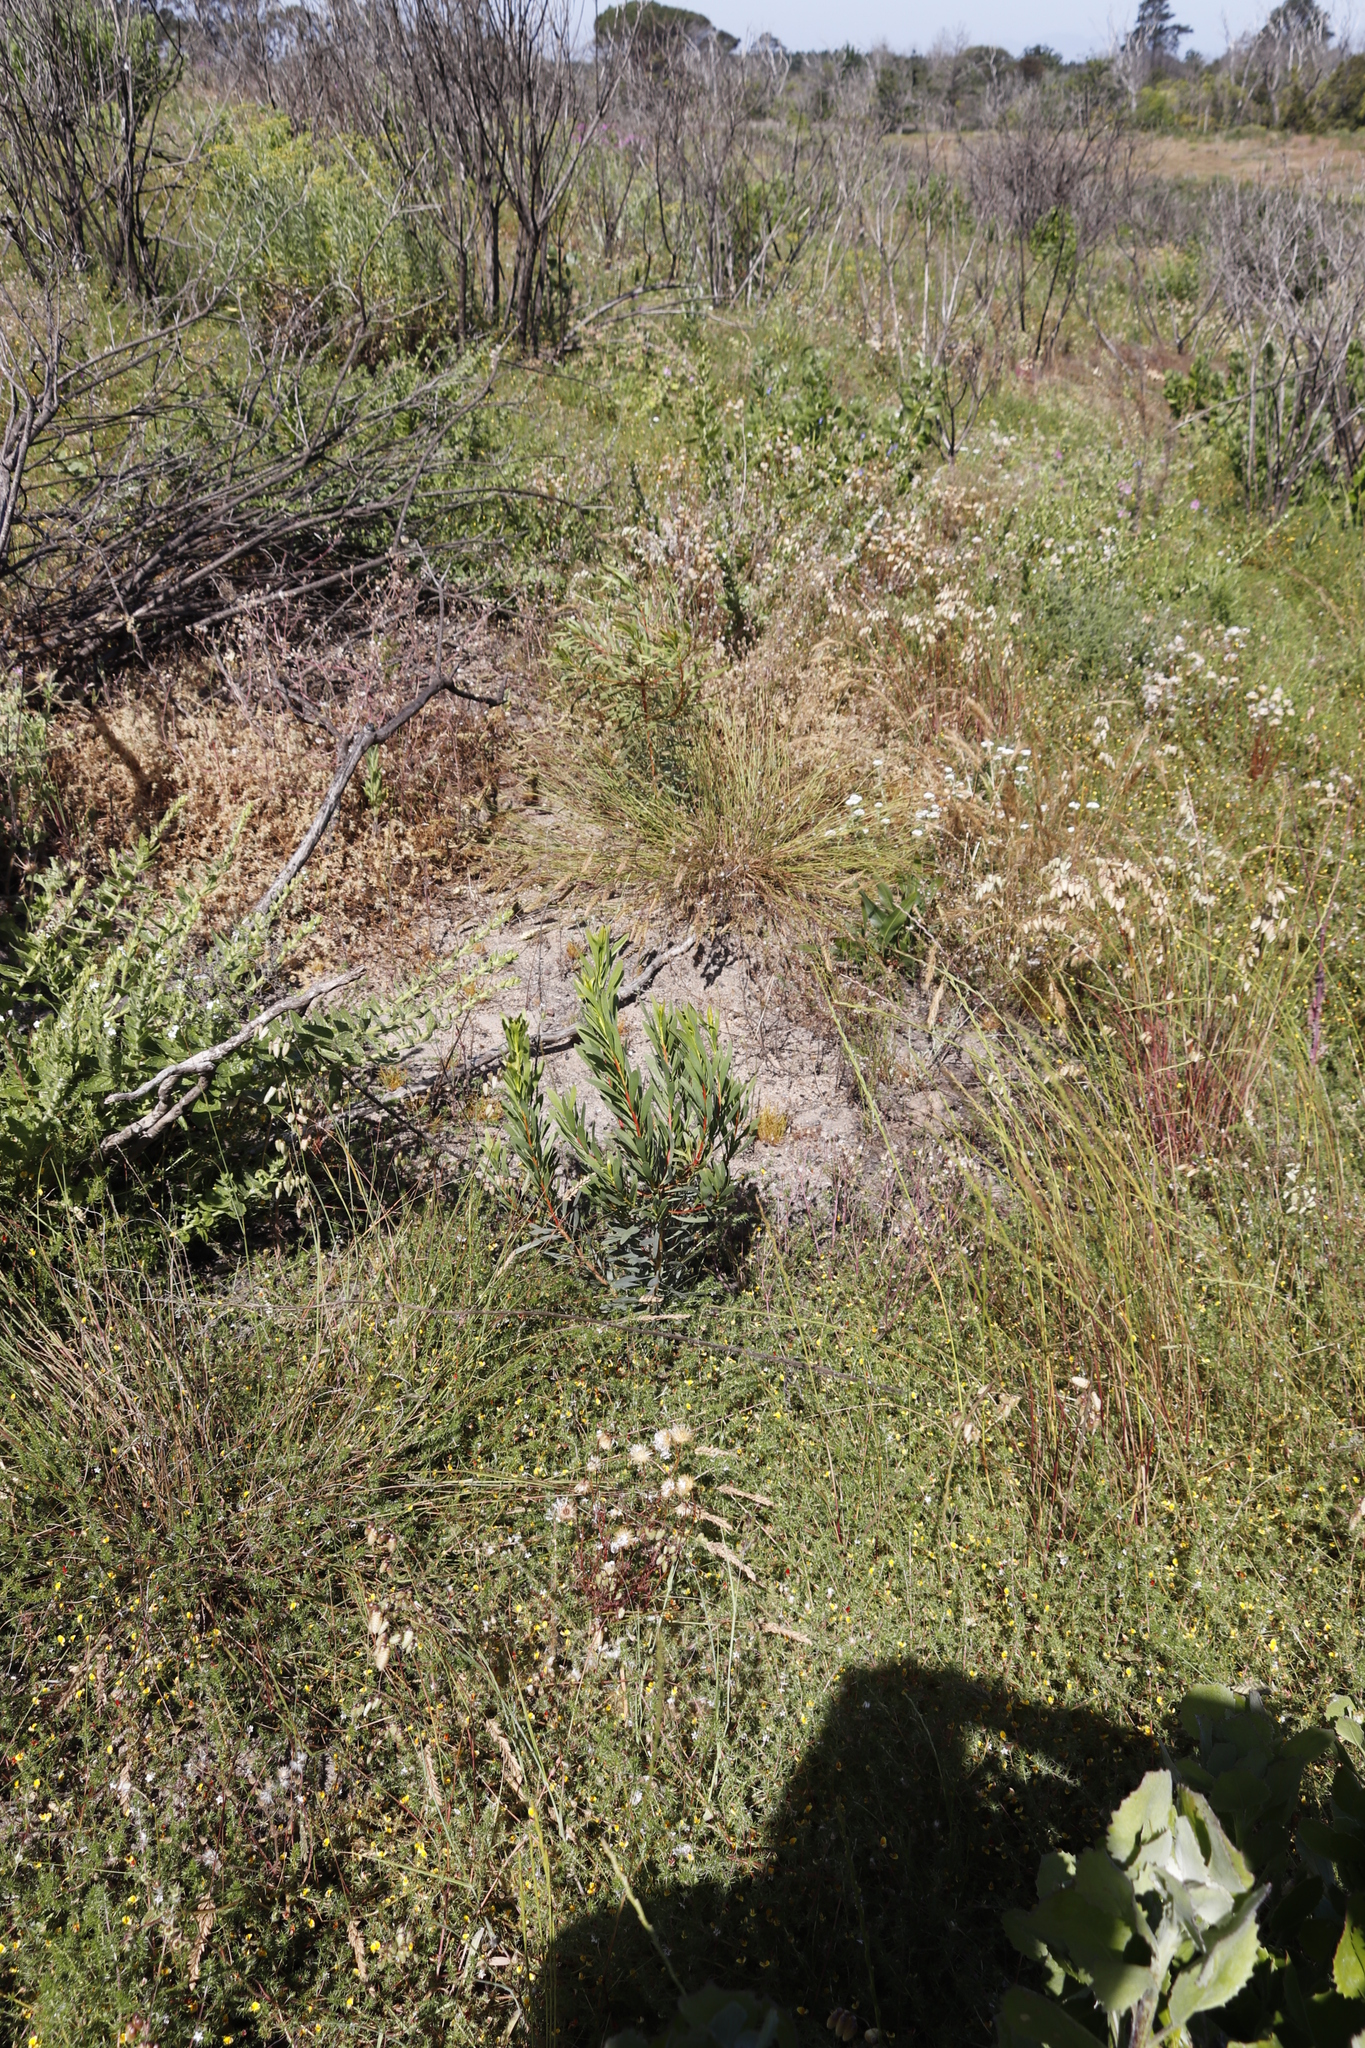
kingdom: Plantae
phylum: Tracheophyta
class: Magnoliopsida
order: Proteales
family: Proteaceae
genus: Protea
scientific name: Protea repens
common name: Sugarbush
